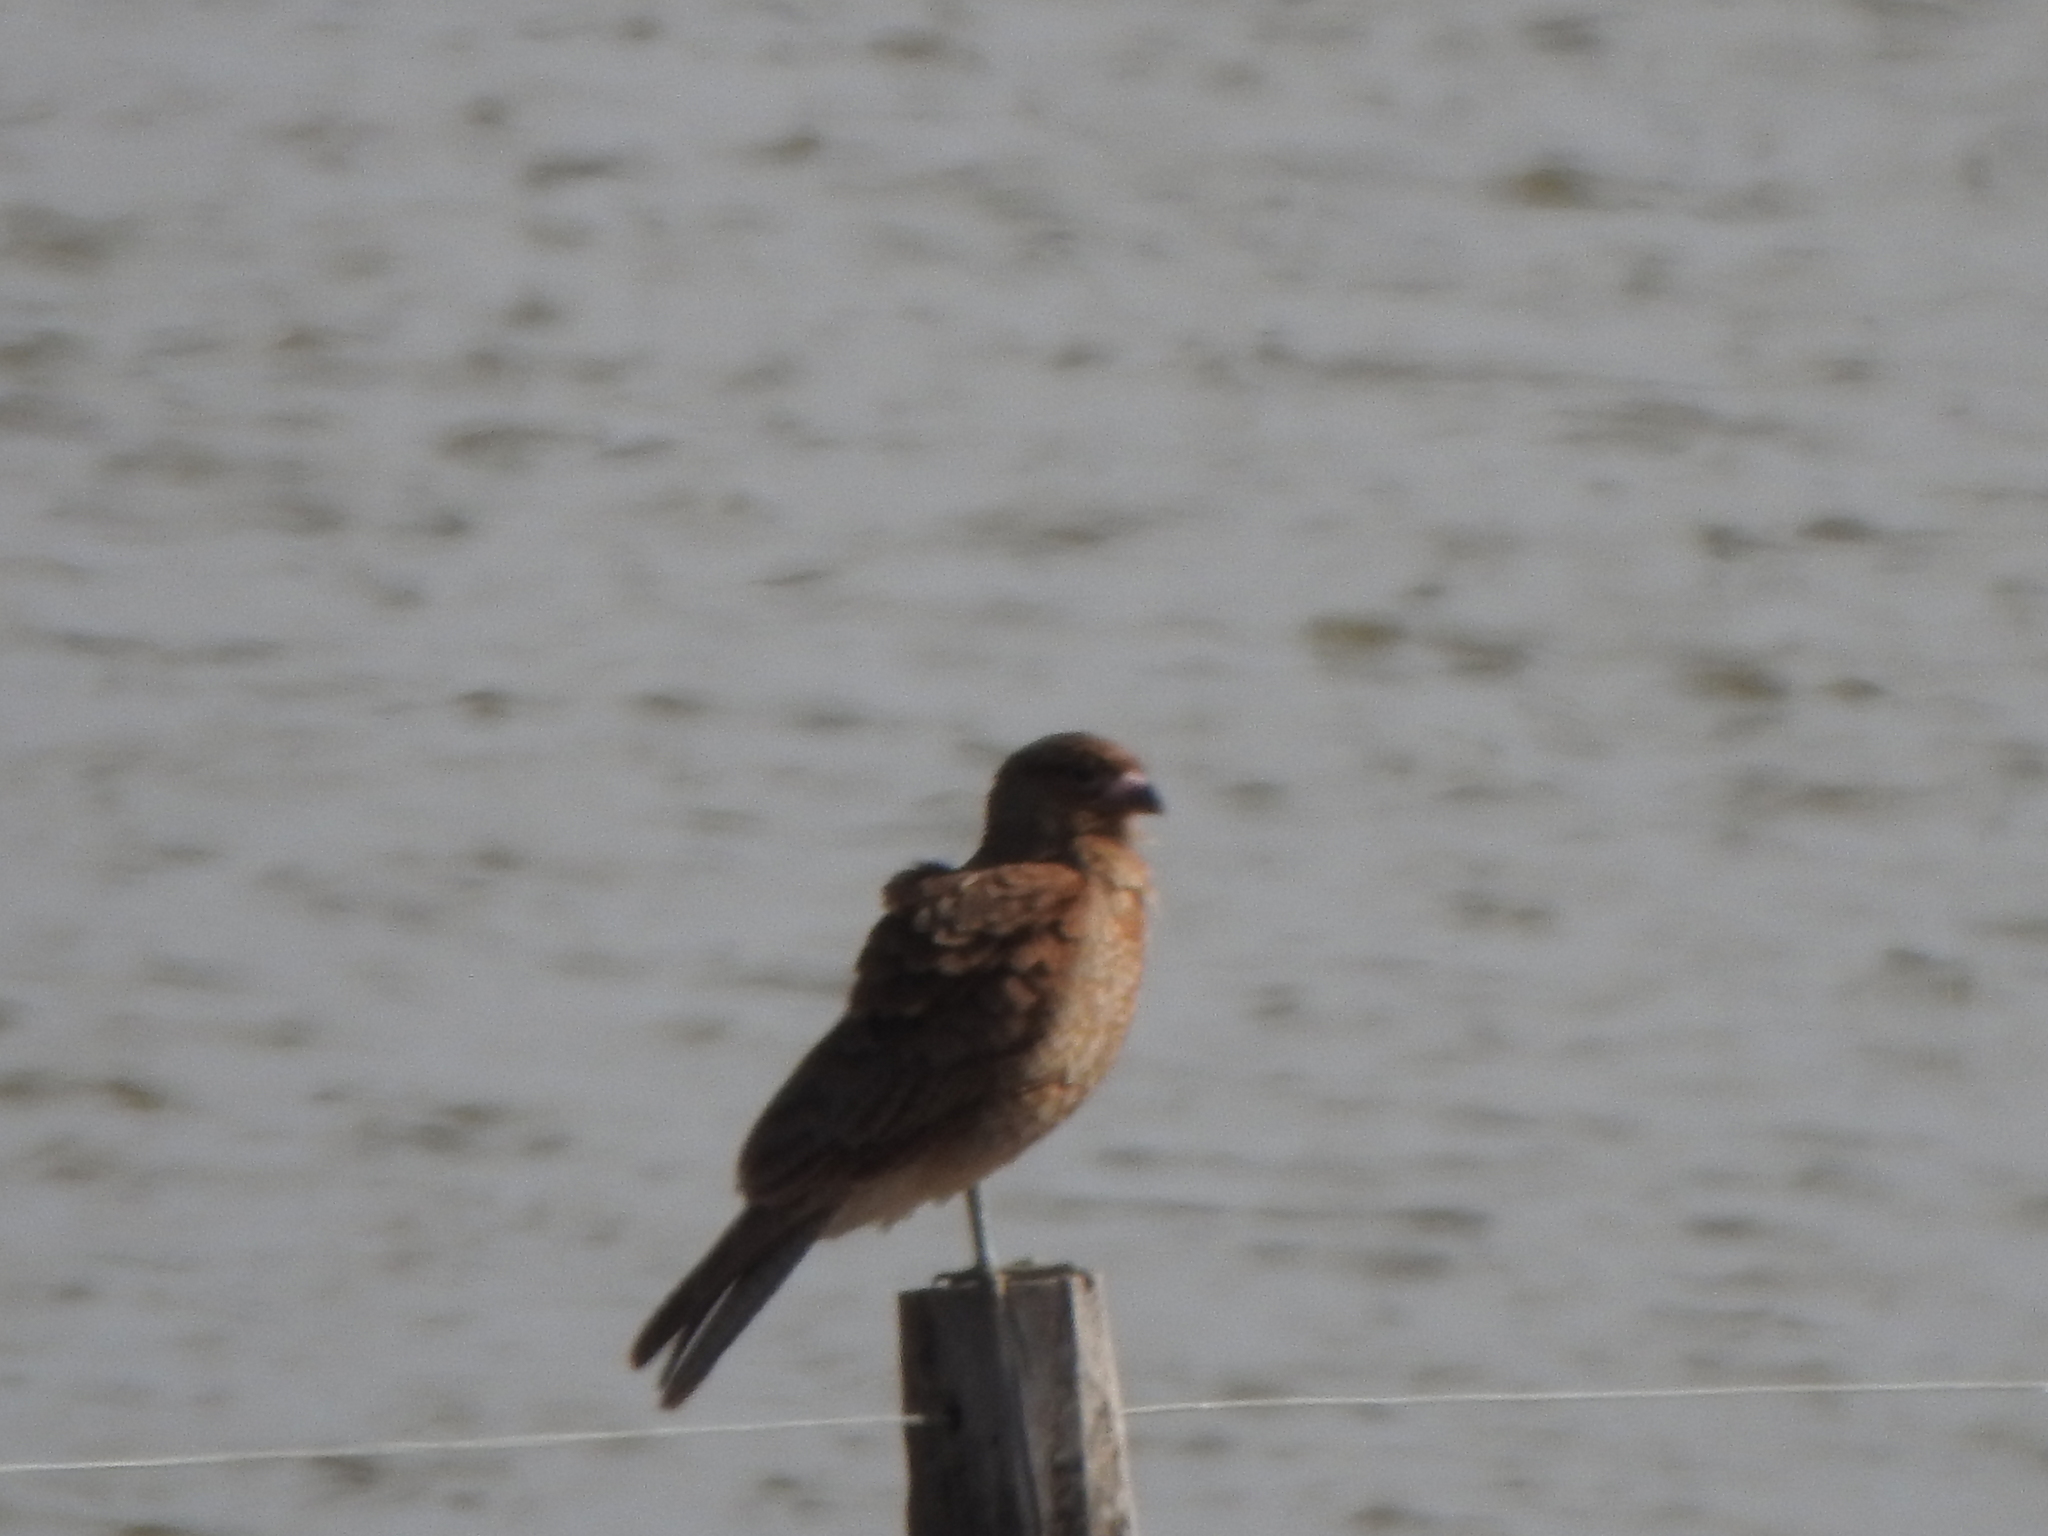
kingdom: Animalia
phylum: Chordata
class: Aves
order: Falconiformes
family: Falconidae
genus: Daptrius
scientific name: Daptrius
